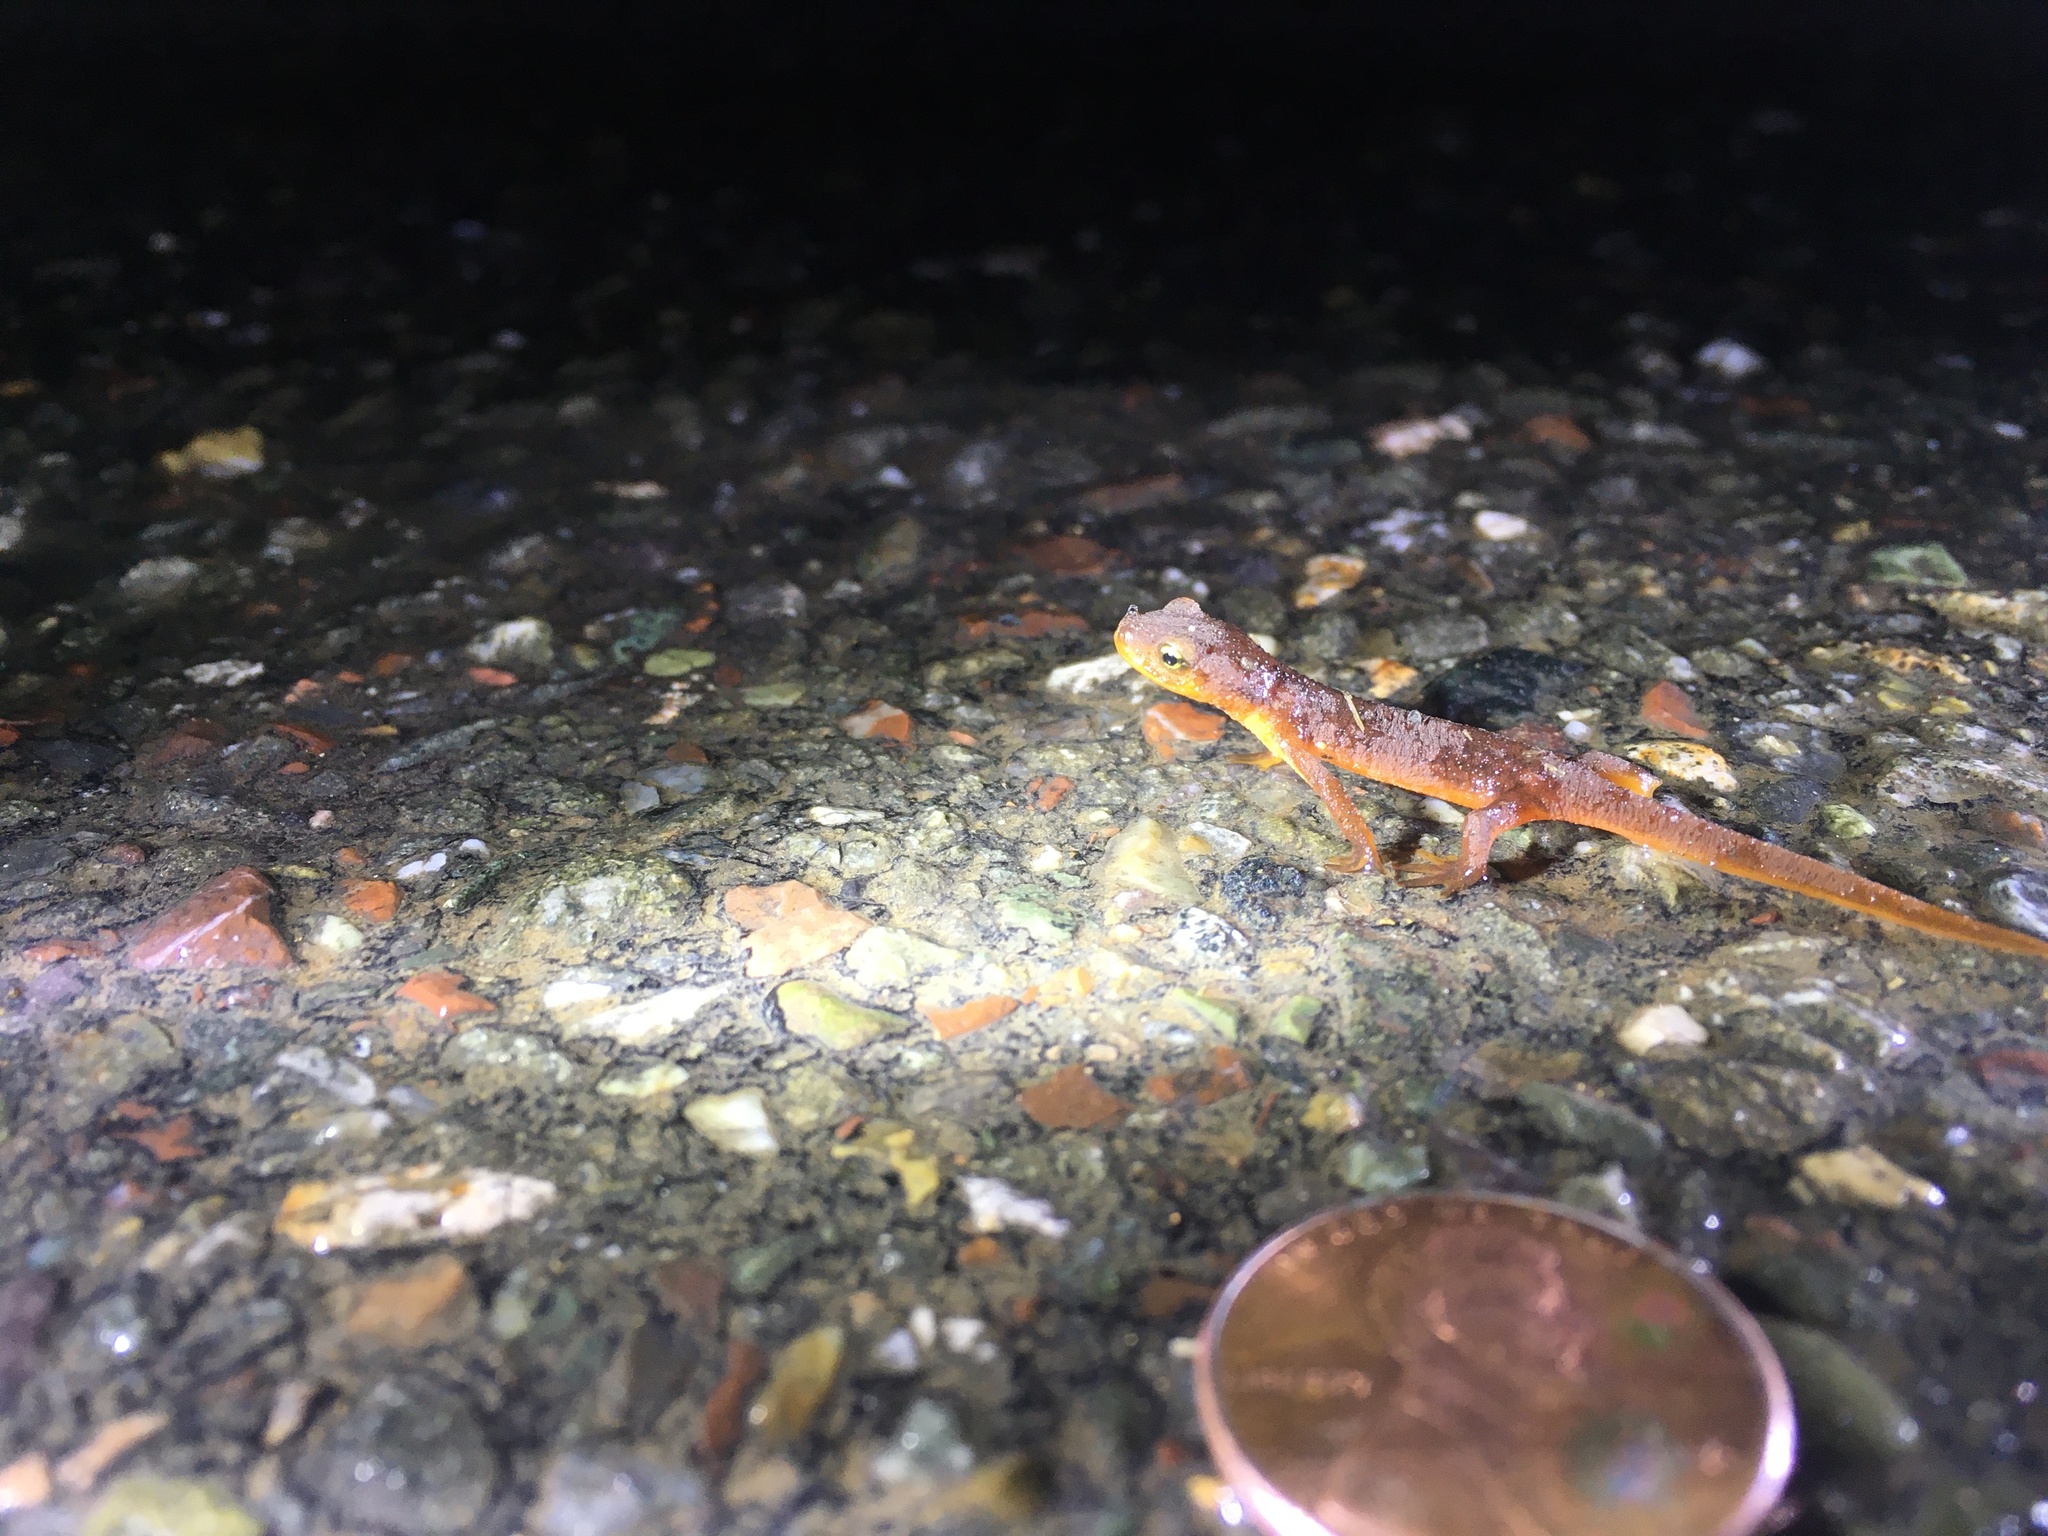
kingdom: Animalia
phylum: Chordata
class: Amphibia
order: Caudata
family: Salamandridae
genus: Taricha
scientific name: Taricha torosa
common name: California newt
